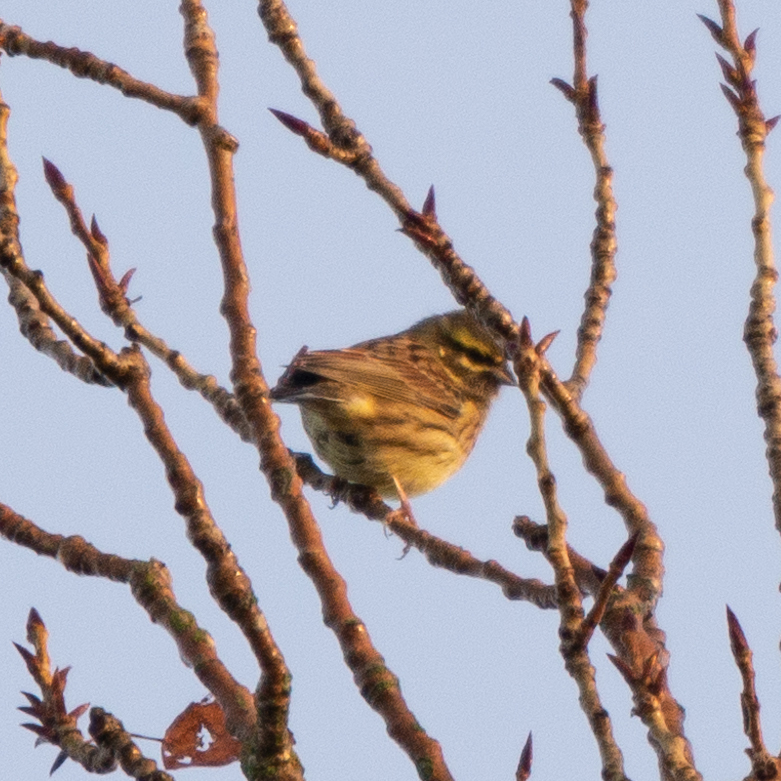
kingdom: Animalia
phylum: Chordata
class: Aves
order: Passeriformes
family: Emberizidae
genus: Emberiza
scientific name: Emberiza cirlus
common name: Cirl bunting
